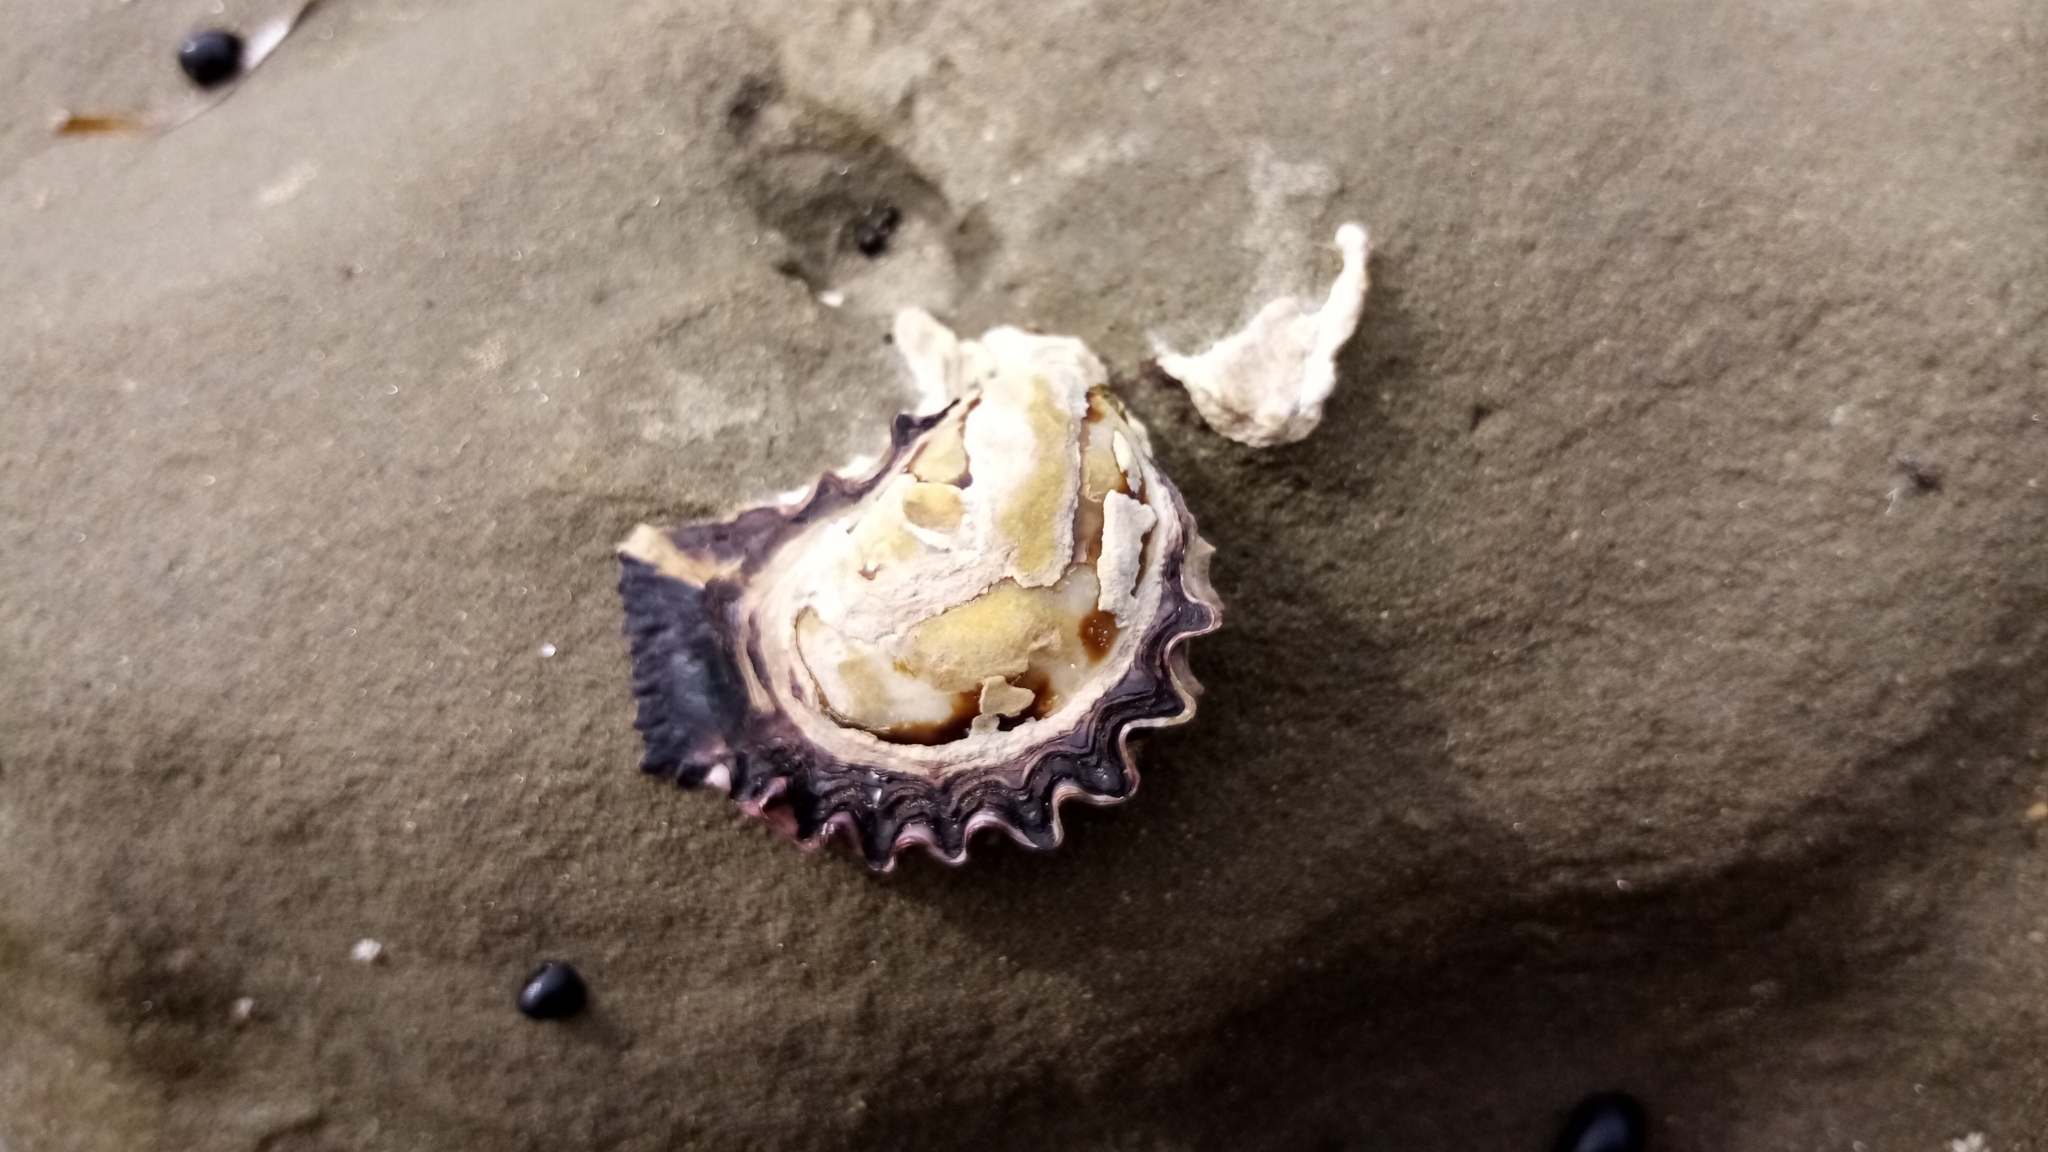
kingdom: Animalia
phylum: Mollusca
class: Bivalvia
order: Ostreida
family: Ostreidae
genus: Saccostrea
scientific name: Saccostrea glomerata
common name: Sydney cupped oyster
